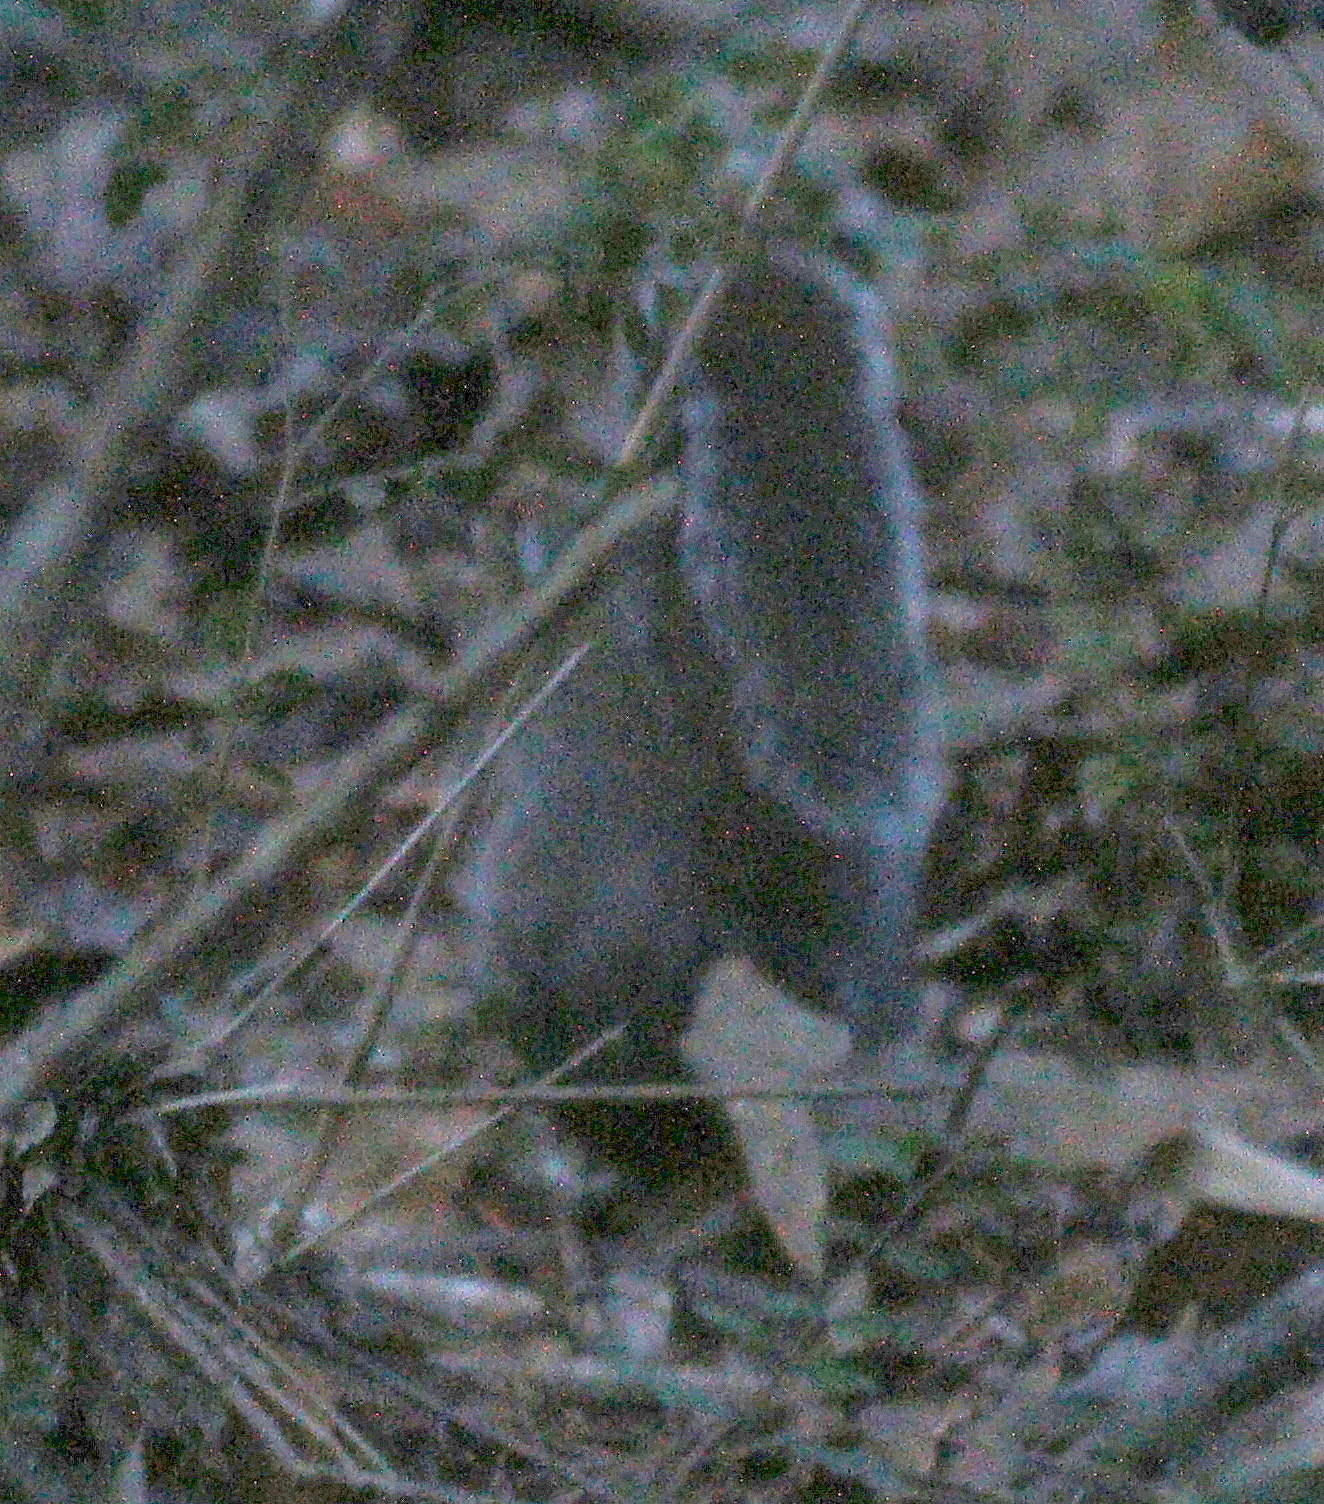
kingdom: Animalia
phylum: Chordata
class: Mammalia
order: Rodentia
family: Sciuridae
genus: Sciurus
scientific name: Sciurus carolinensis
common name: Eastern gray squirrel
